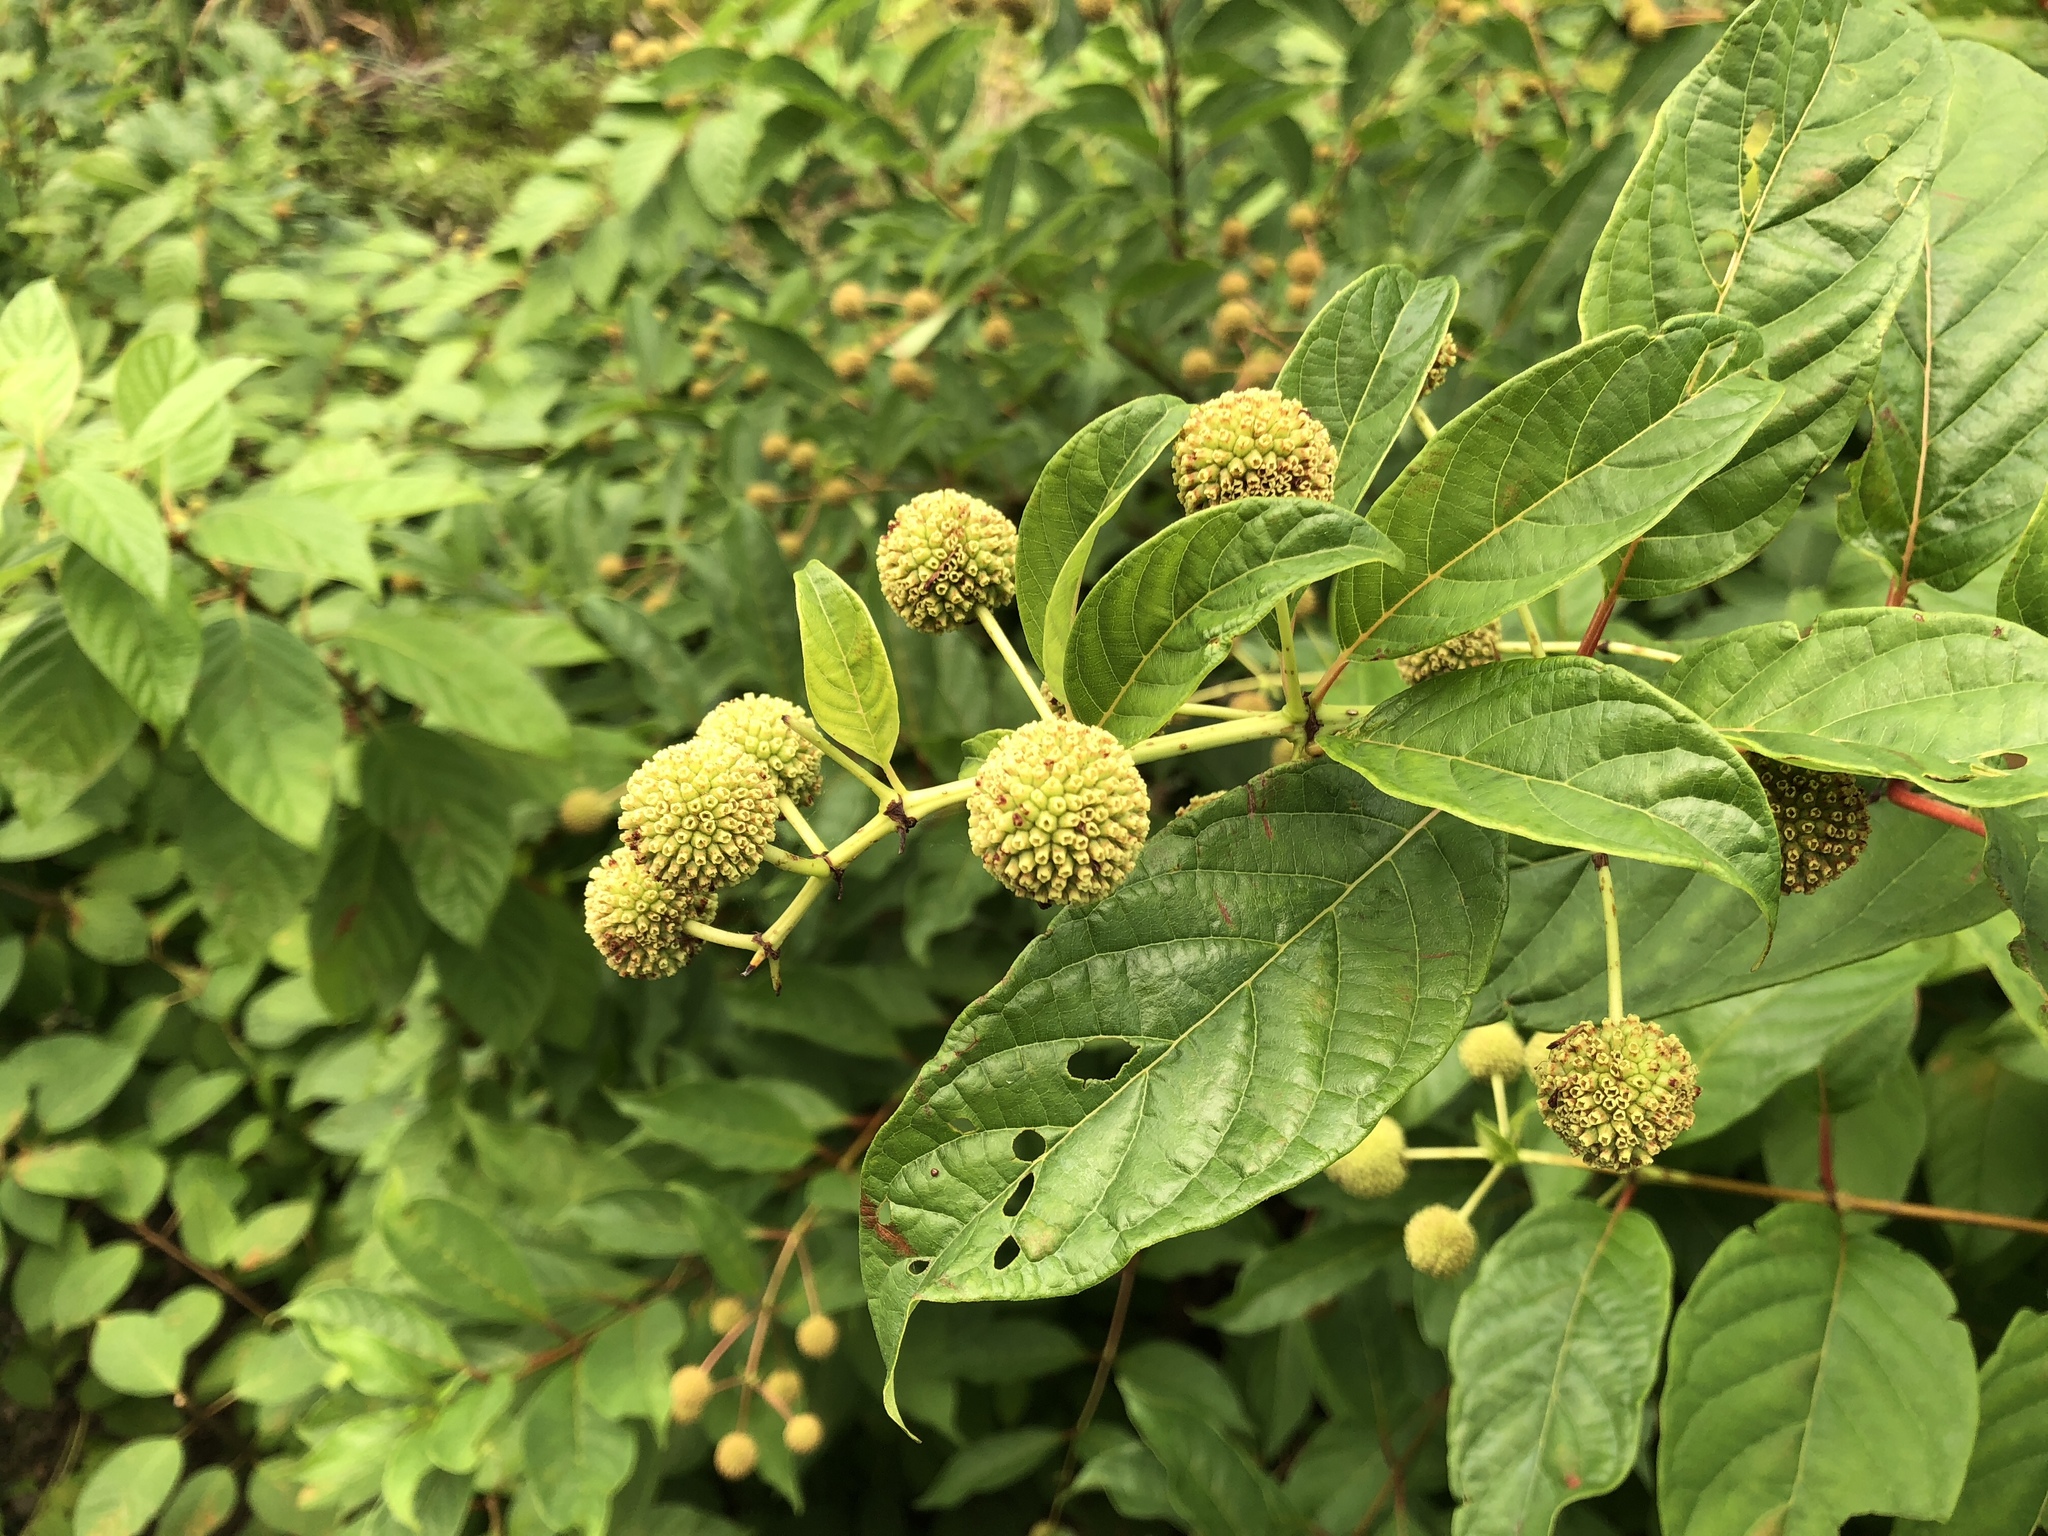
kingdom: Plantae
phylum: Tracheophyta
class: Magnoliopsida
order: Gentianales
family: Rubiaceae
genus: Cephalanthus
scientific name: Cephalanthus occidentalis
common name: Button-willow
